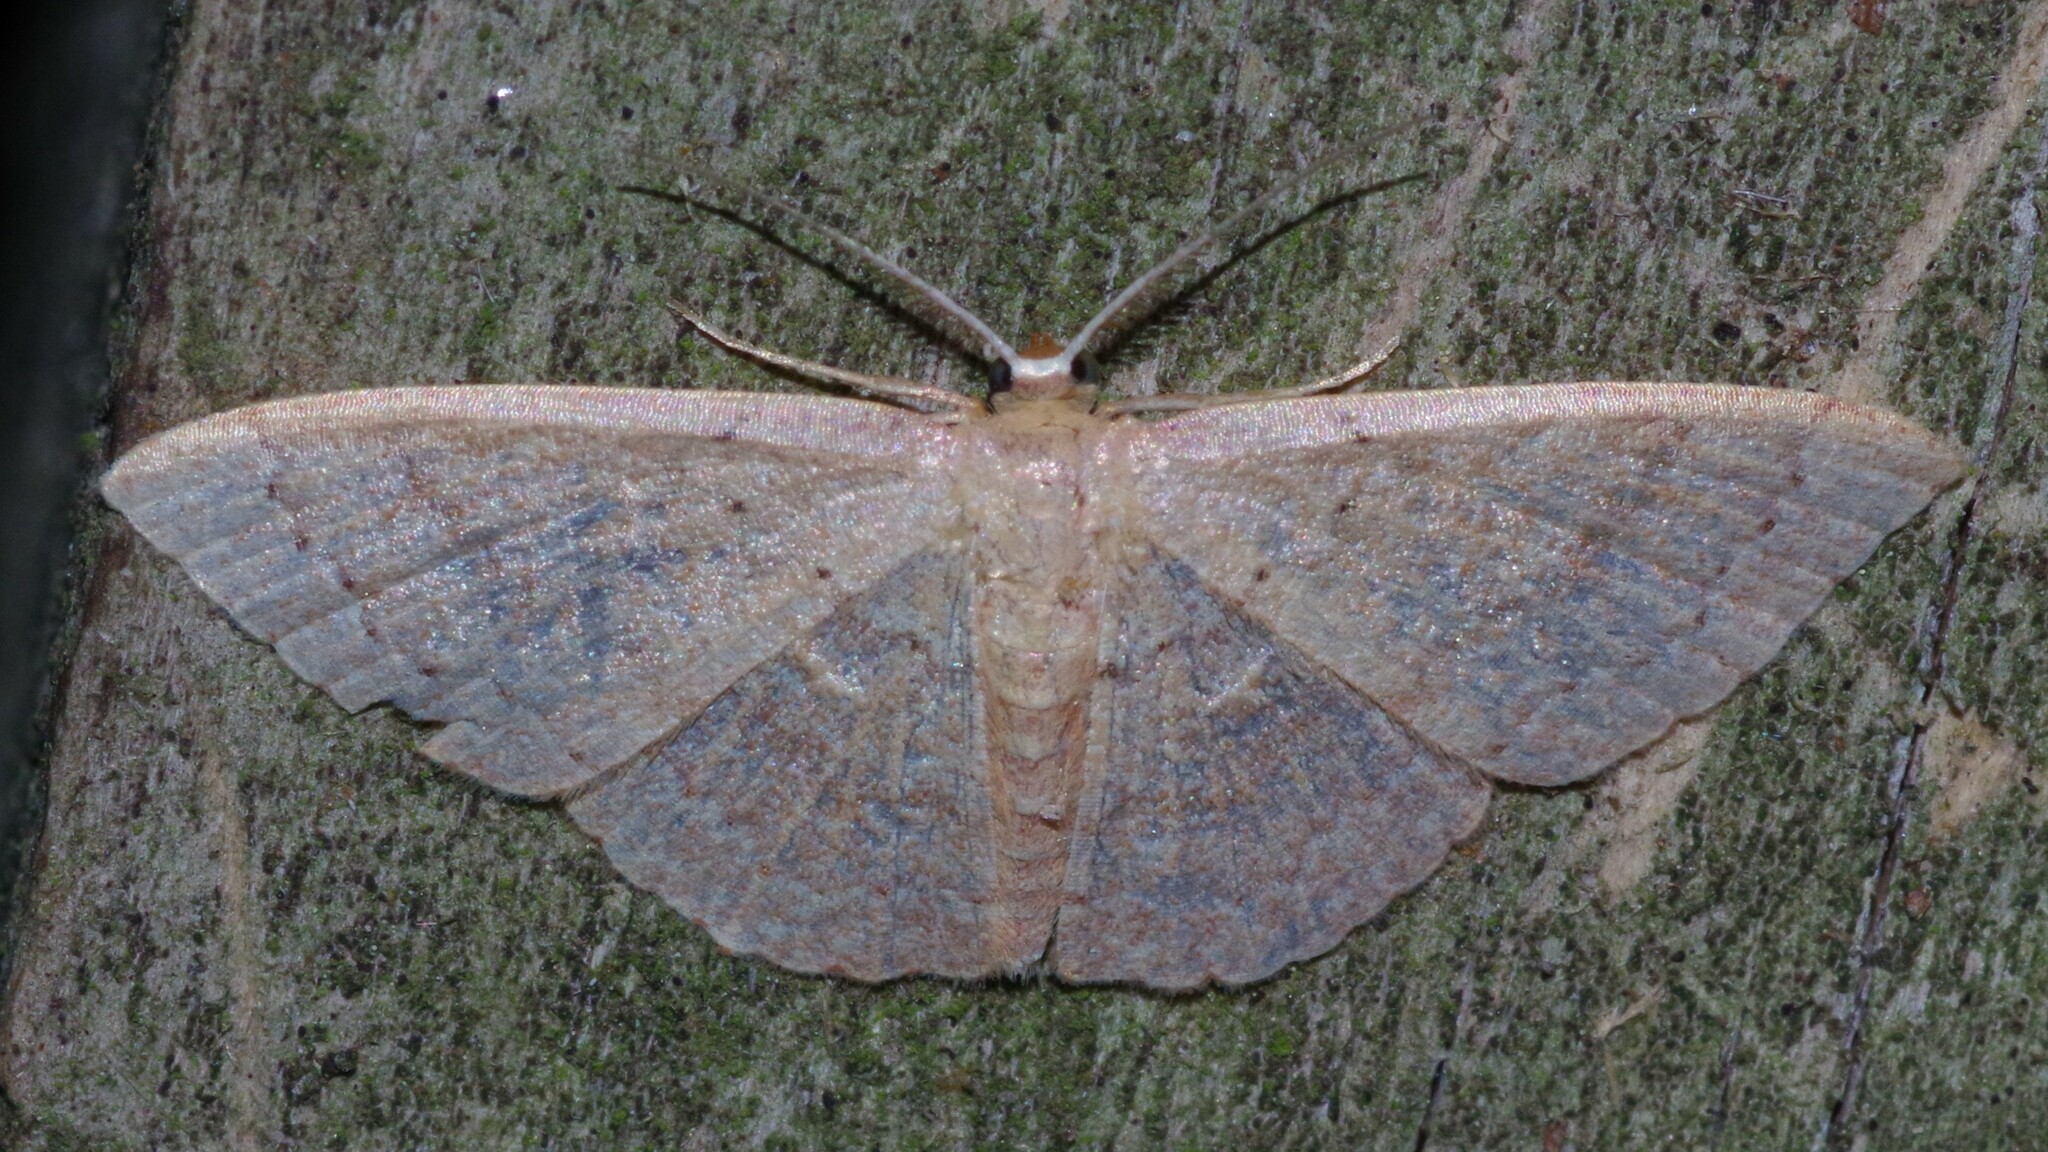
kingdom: Animalia
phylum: Arthropoda
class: Insecta
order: Lepidoptera
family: Geometridae
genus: Pleuroprucha
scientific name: Pleuroprucha insulsaria
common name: Common tan wave
